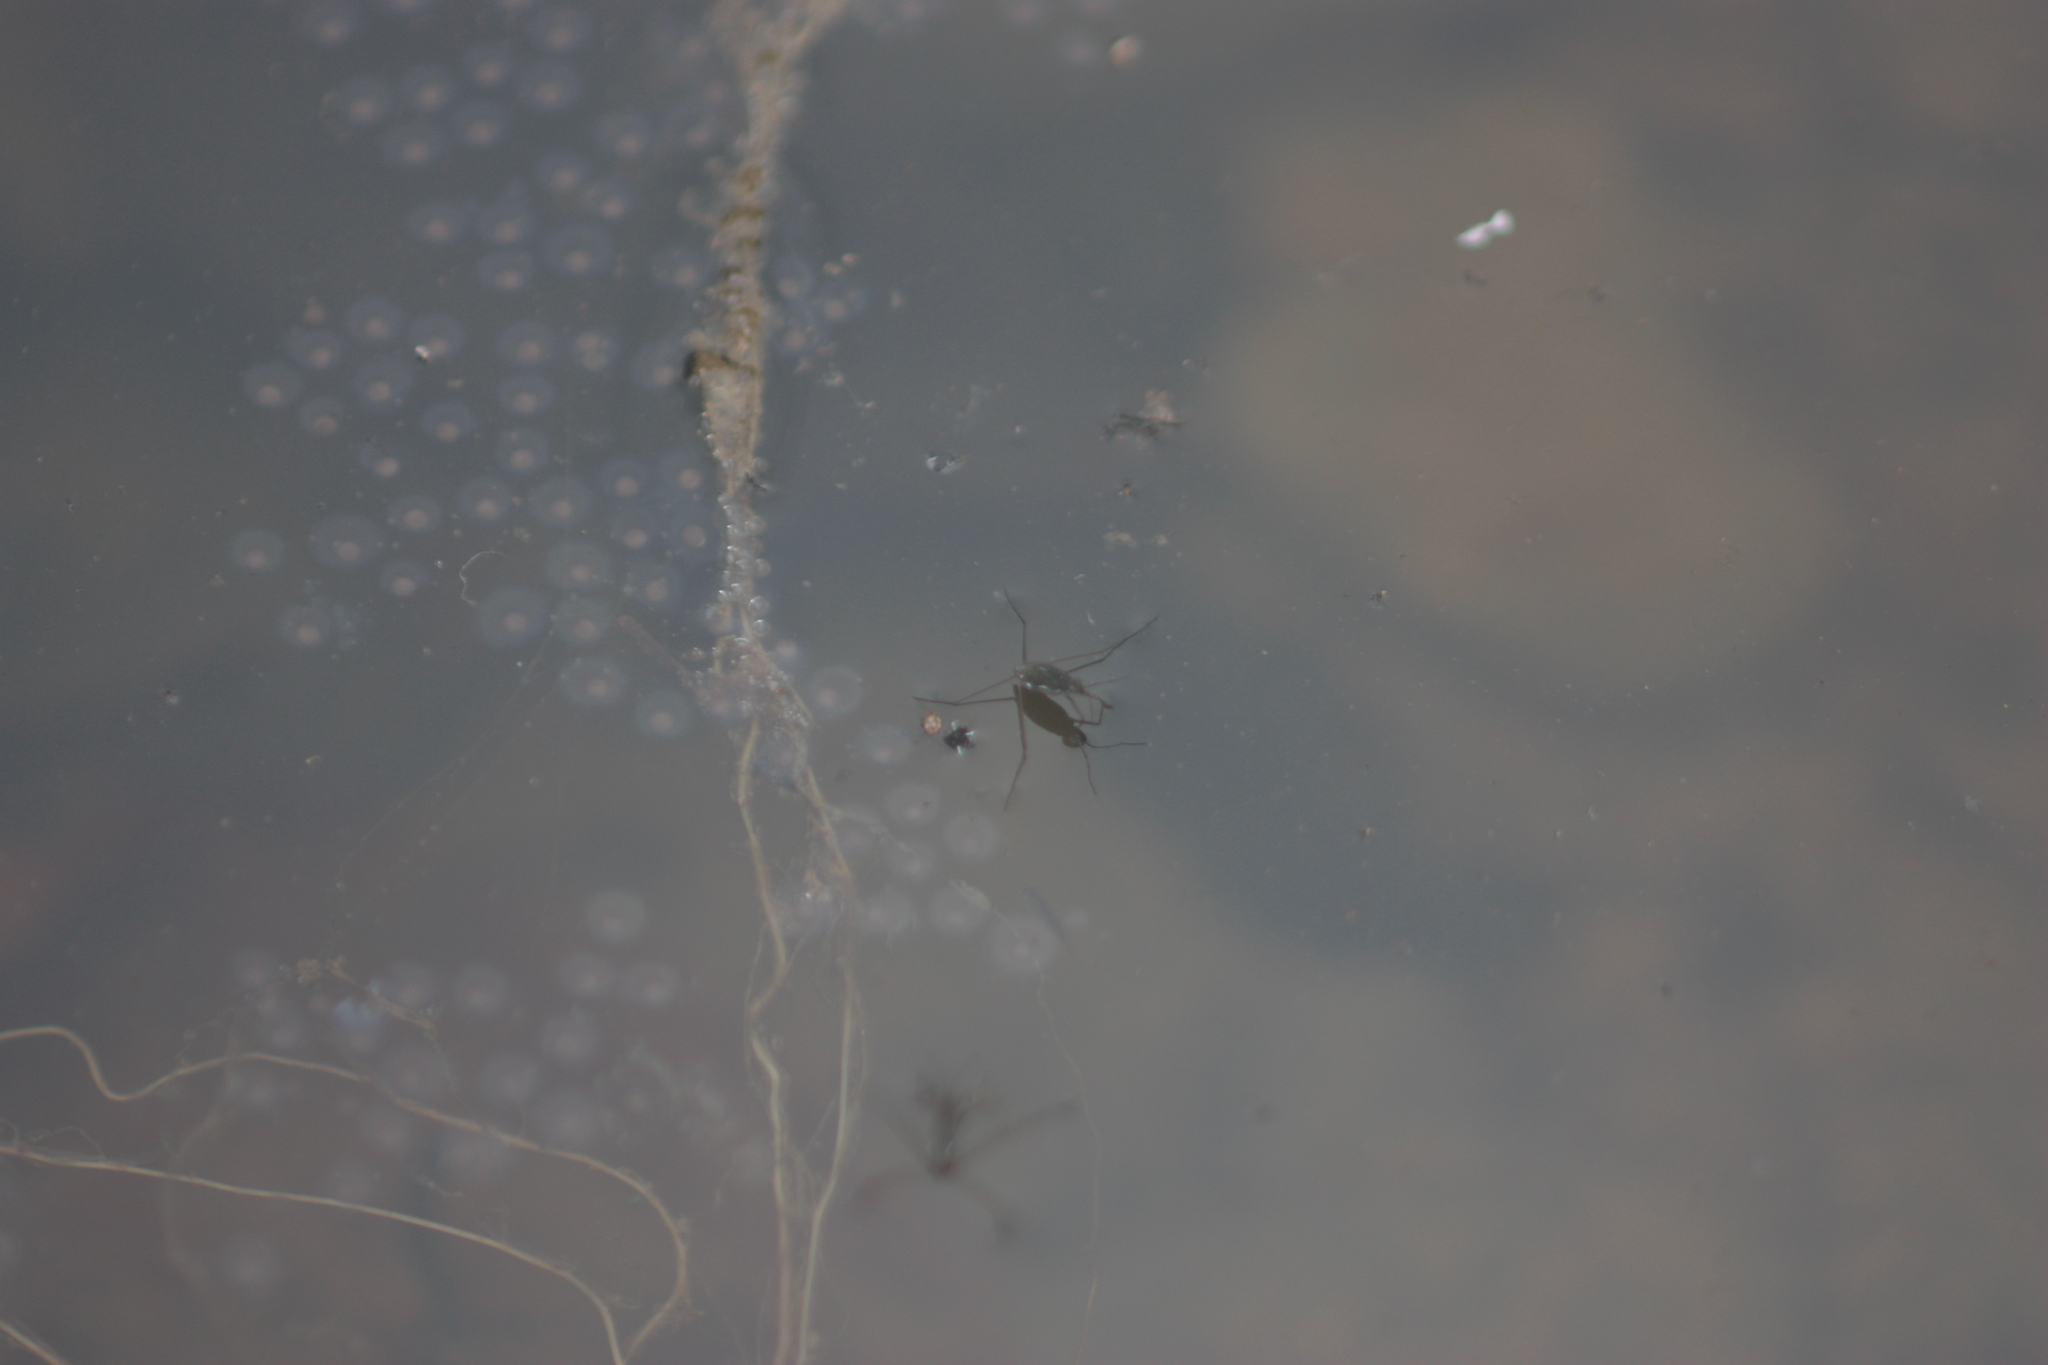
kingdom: Animalia
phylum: Arthropoda
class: Insecta
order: Hemiptera
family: Gerridae
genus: Amemboa
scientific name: Amemboa
